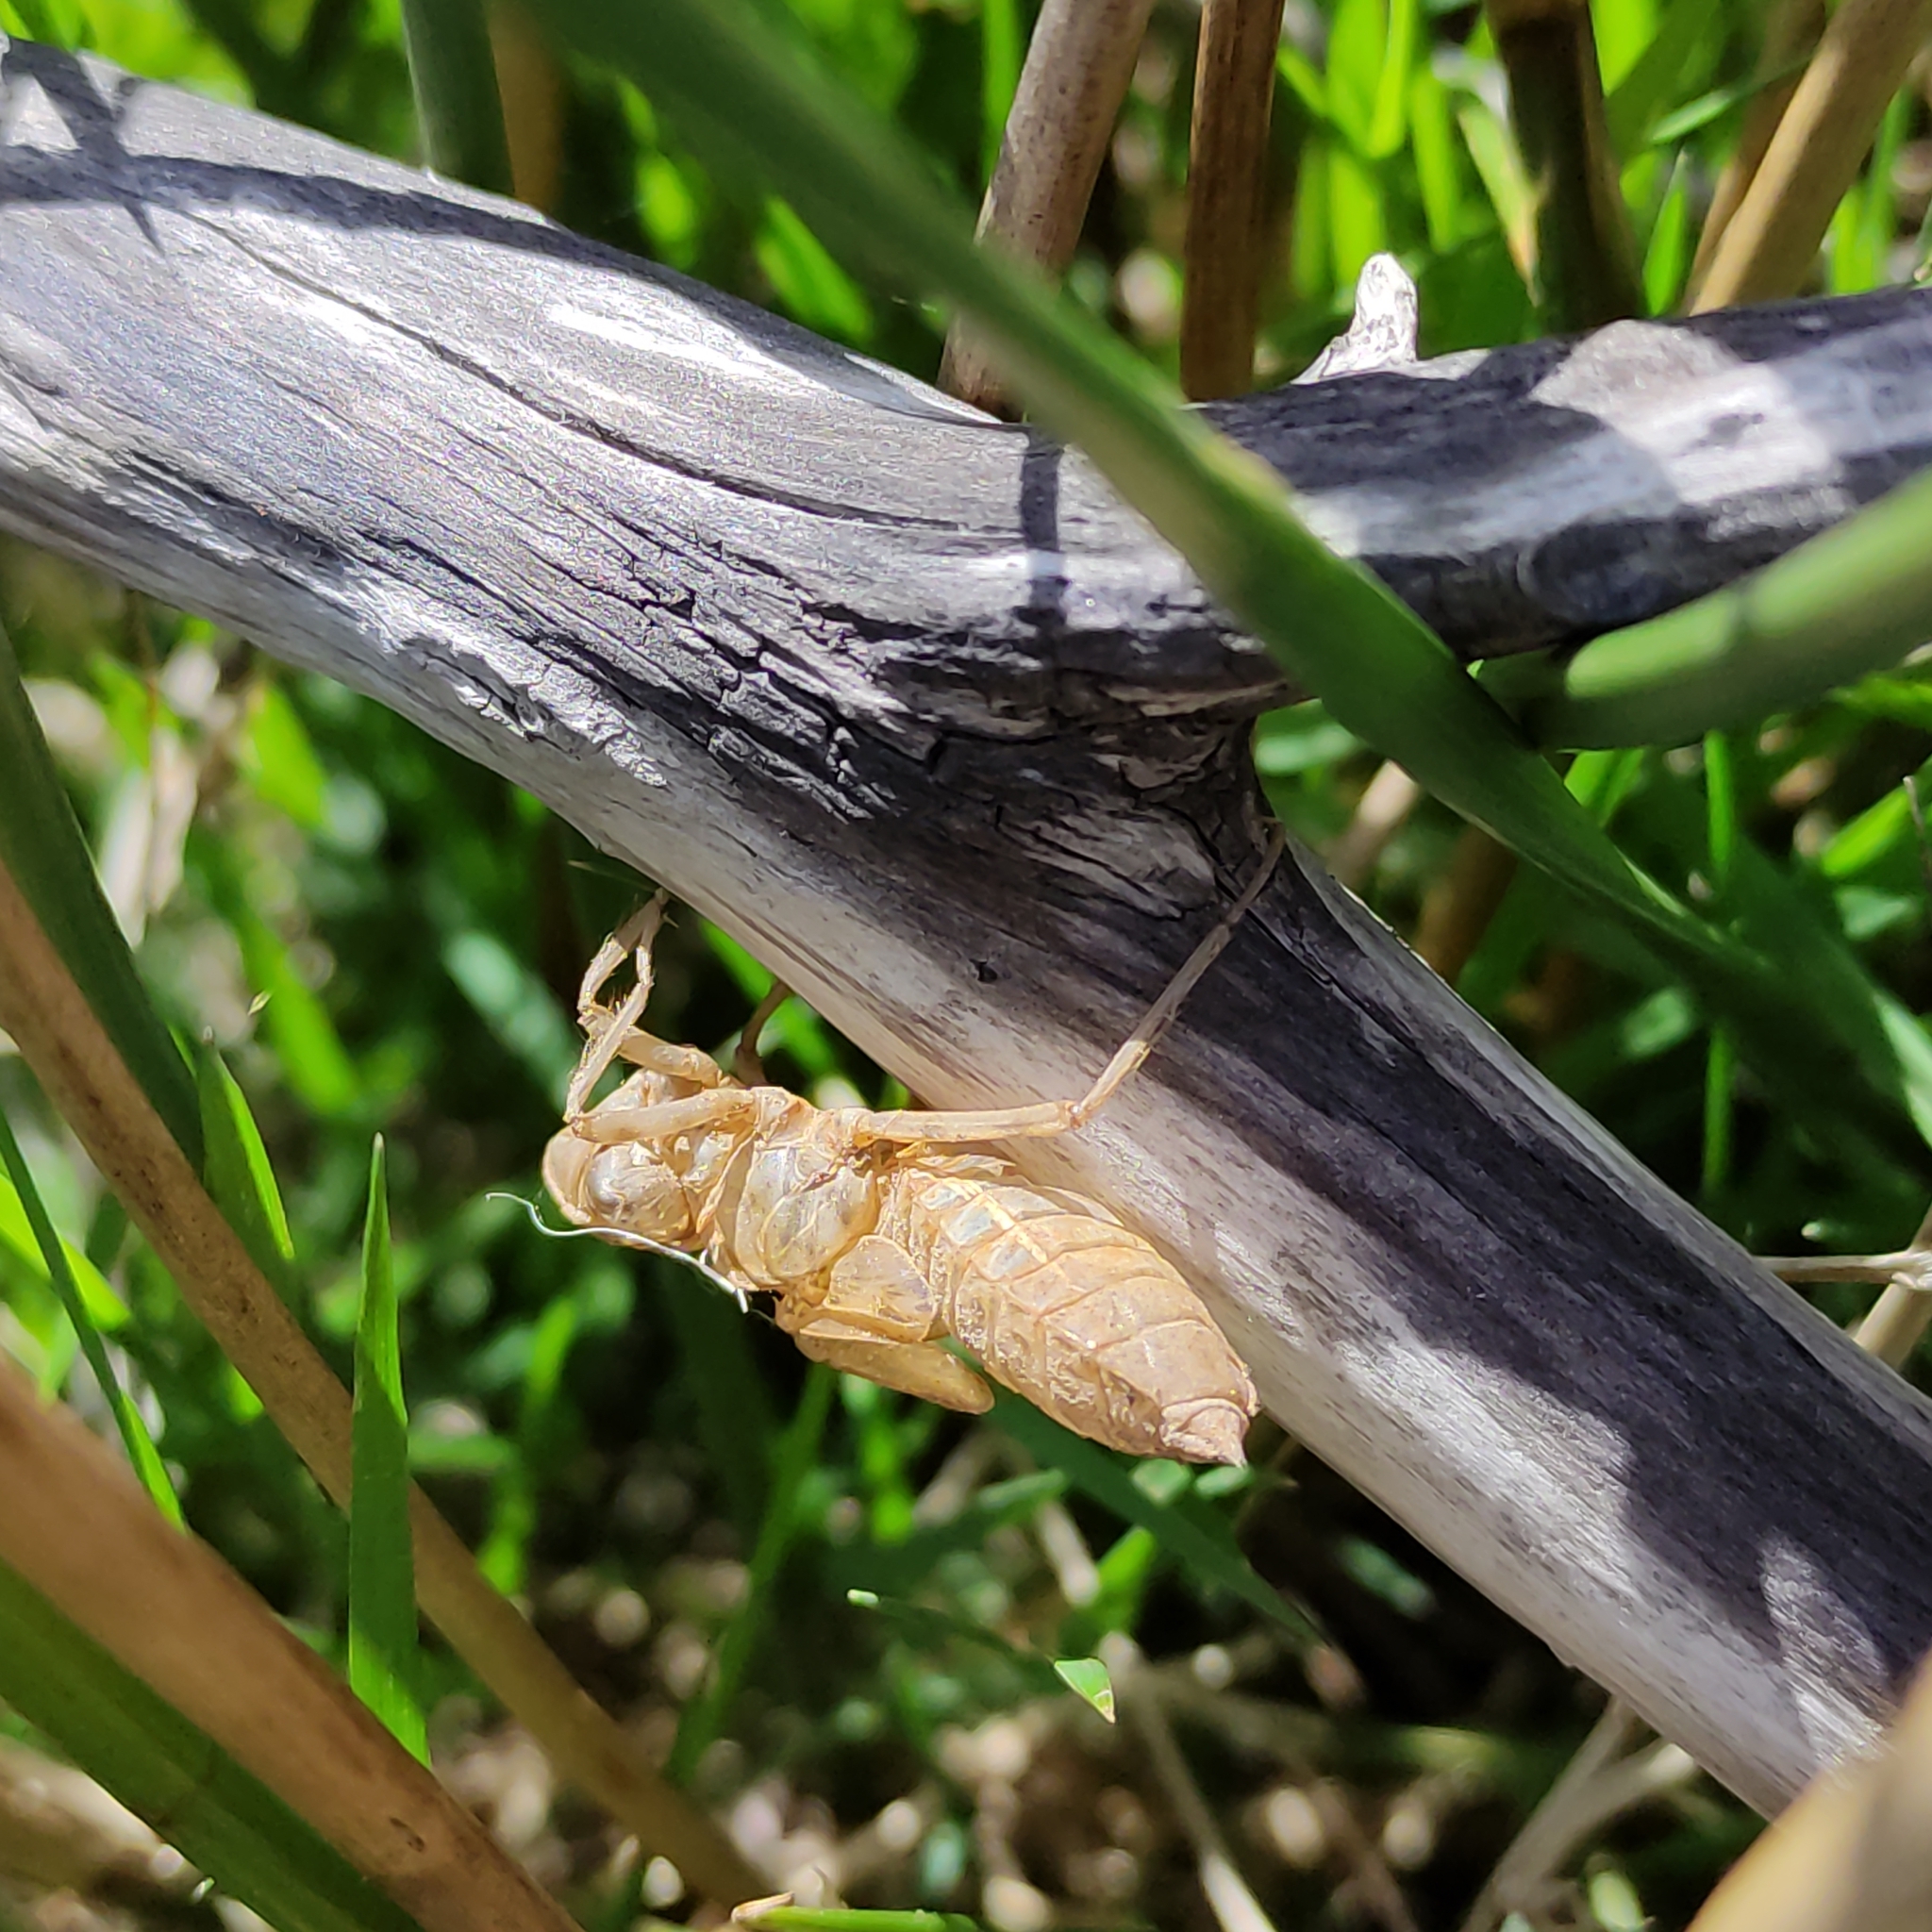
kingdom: Animalia
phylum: Arthropoda
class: Insecta
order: Odonata
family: Corduliidae
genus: Procordulia
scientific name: Procordulia grayi
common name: Yellow spotted dragonfly
